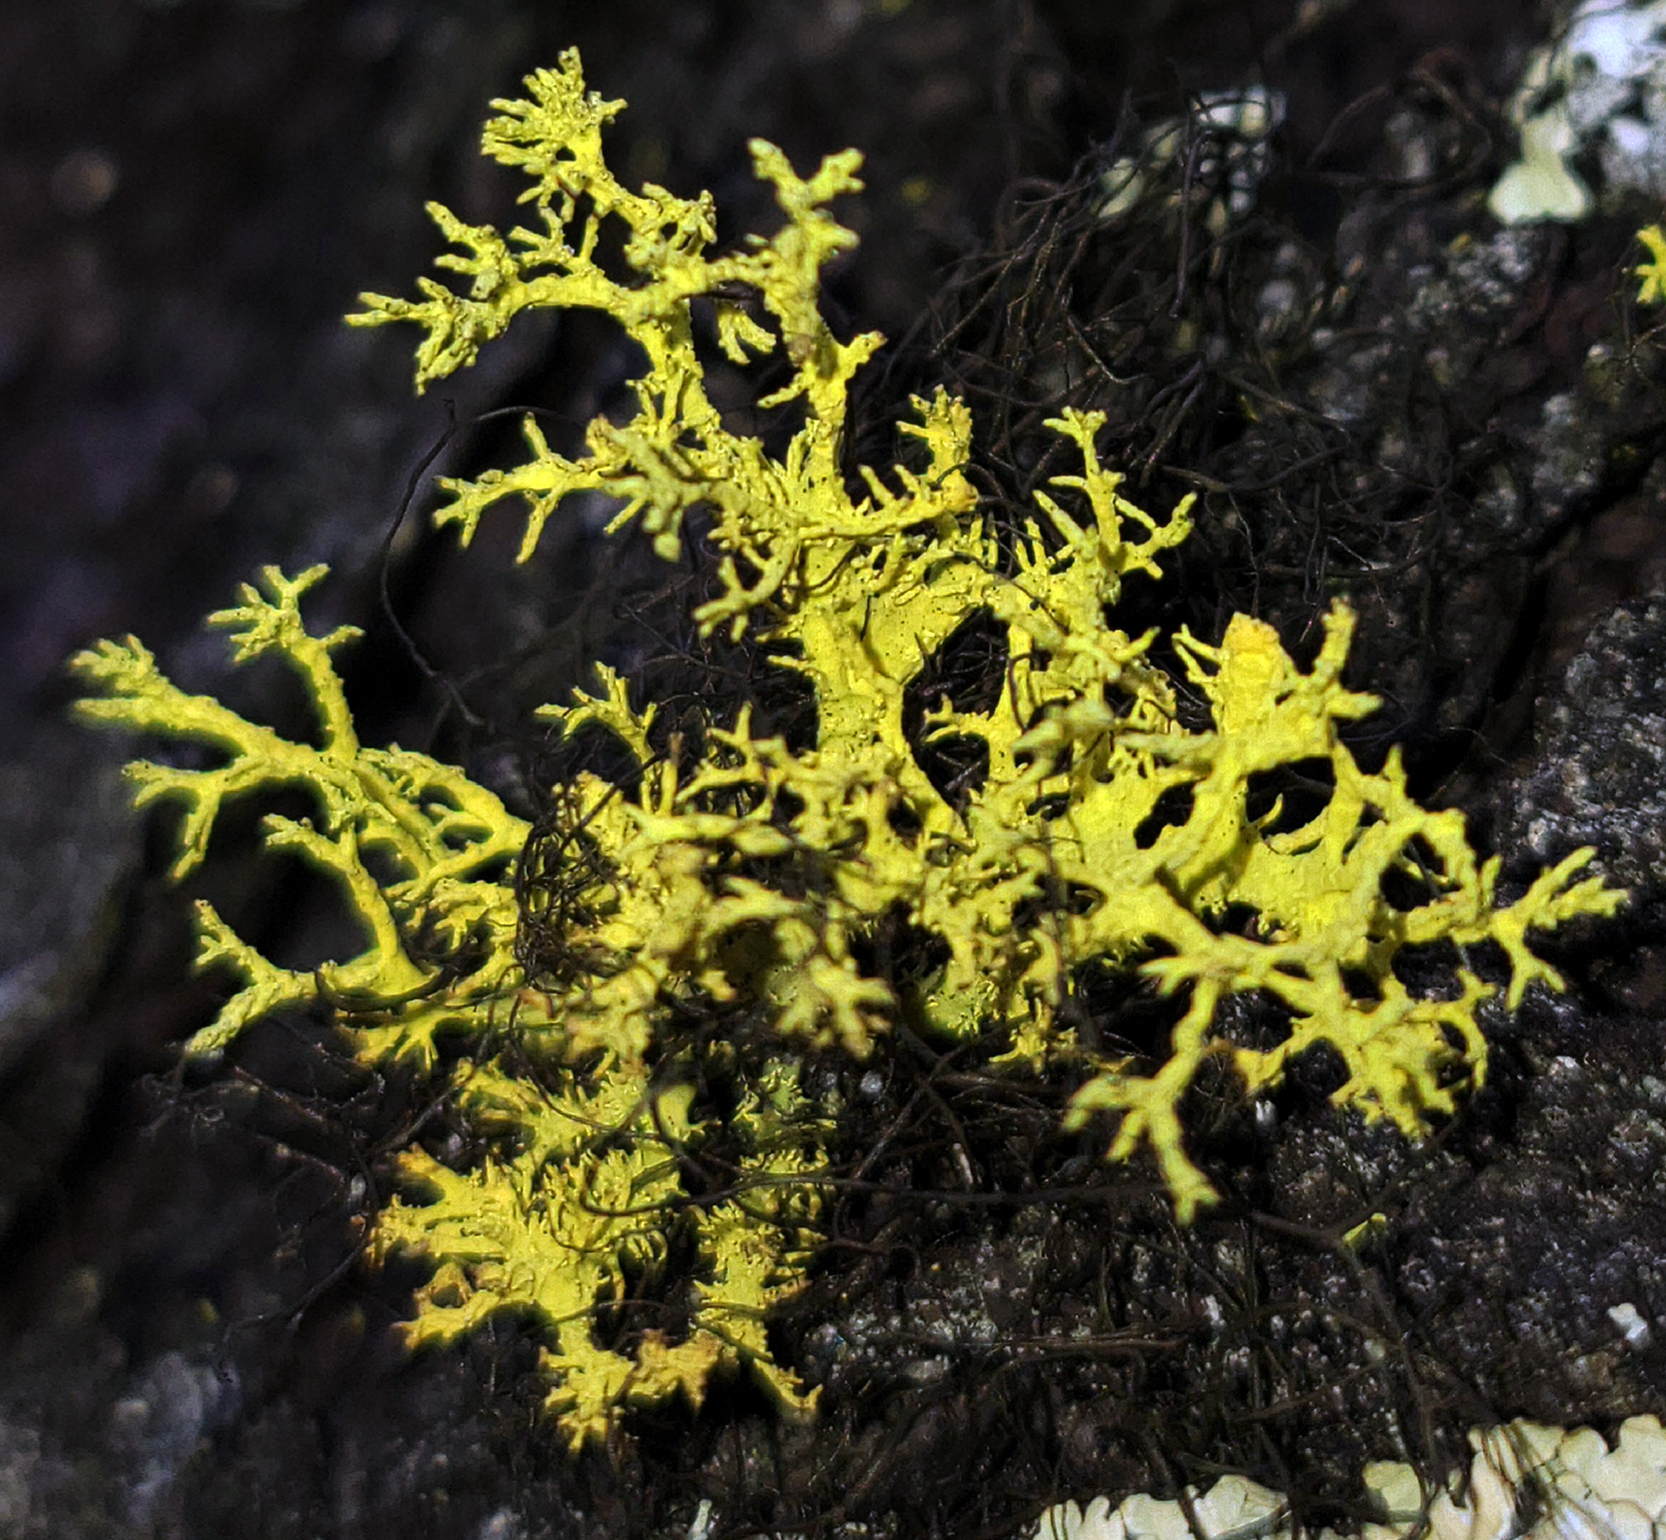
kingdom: Fungi
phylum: Ascomycota
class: Lecanoromycetes
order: Lecanorales
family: Parmeliaceae
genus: Letharia
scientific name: Letharia vulpina
